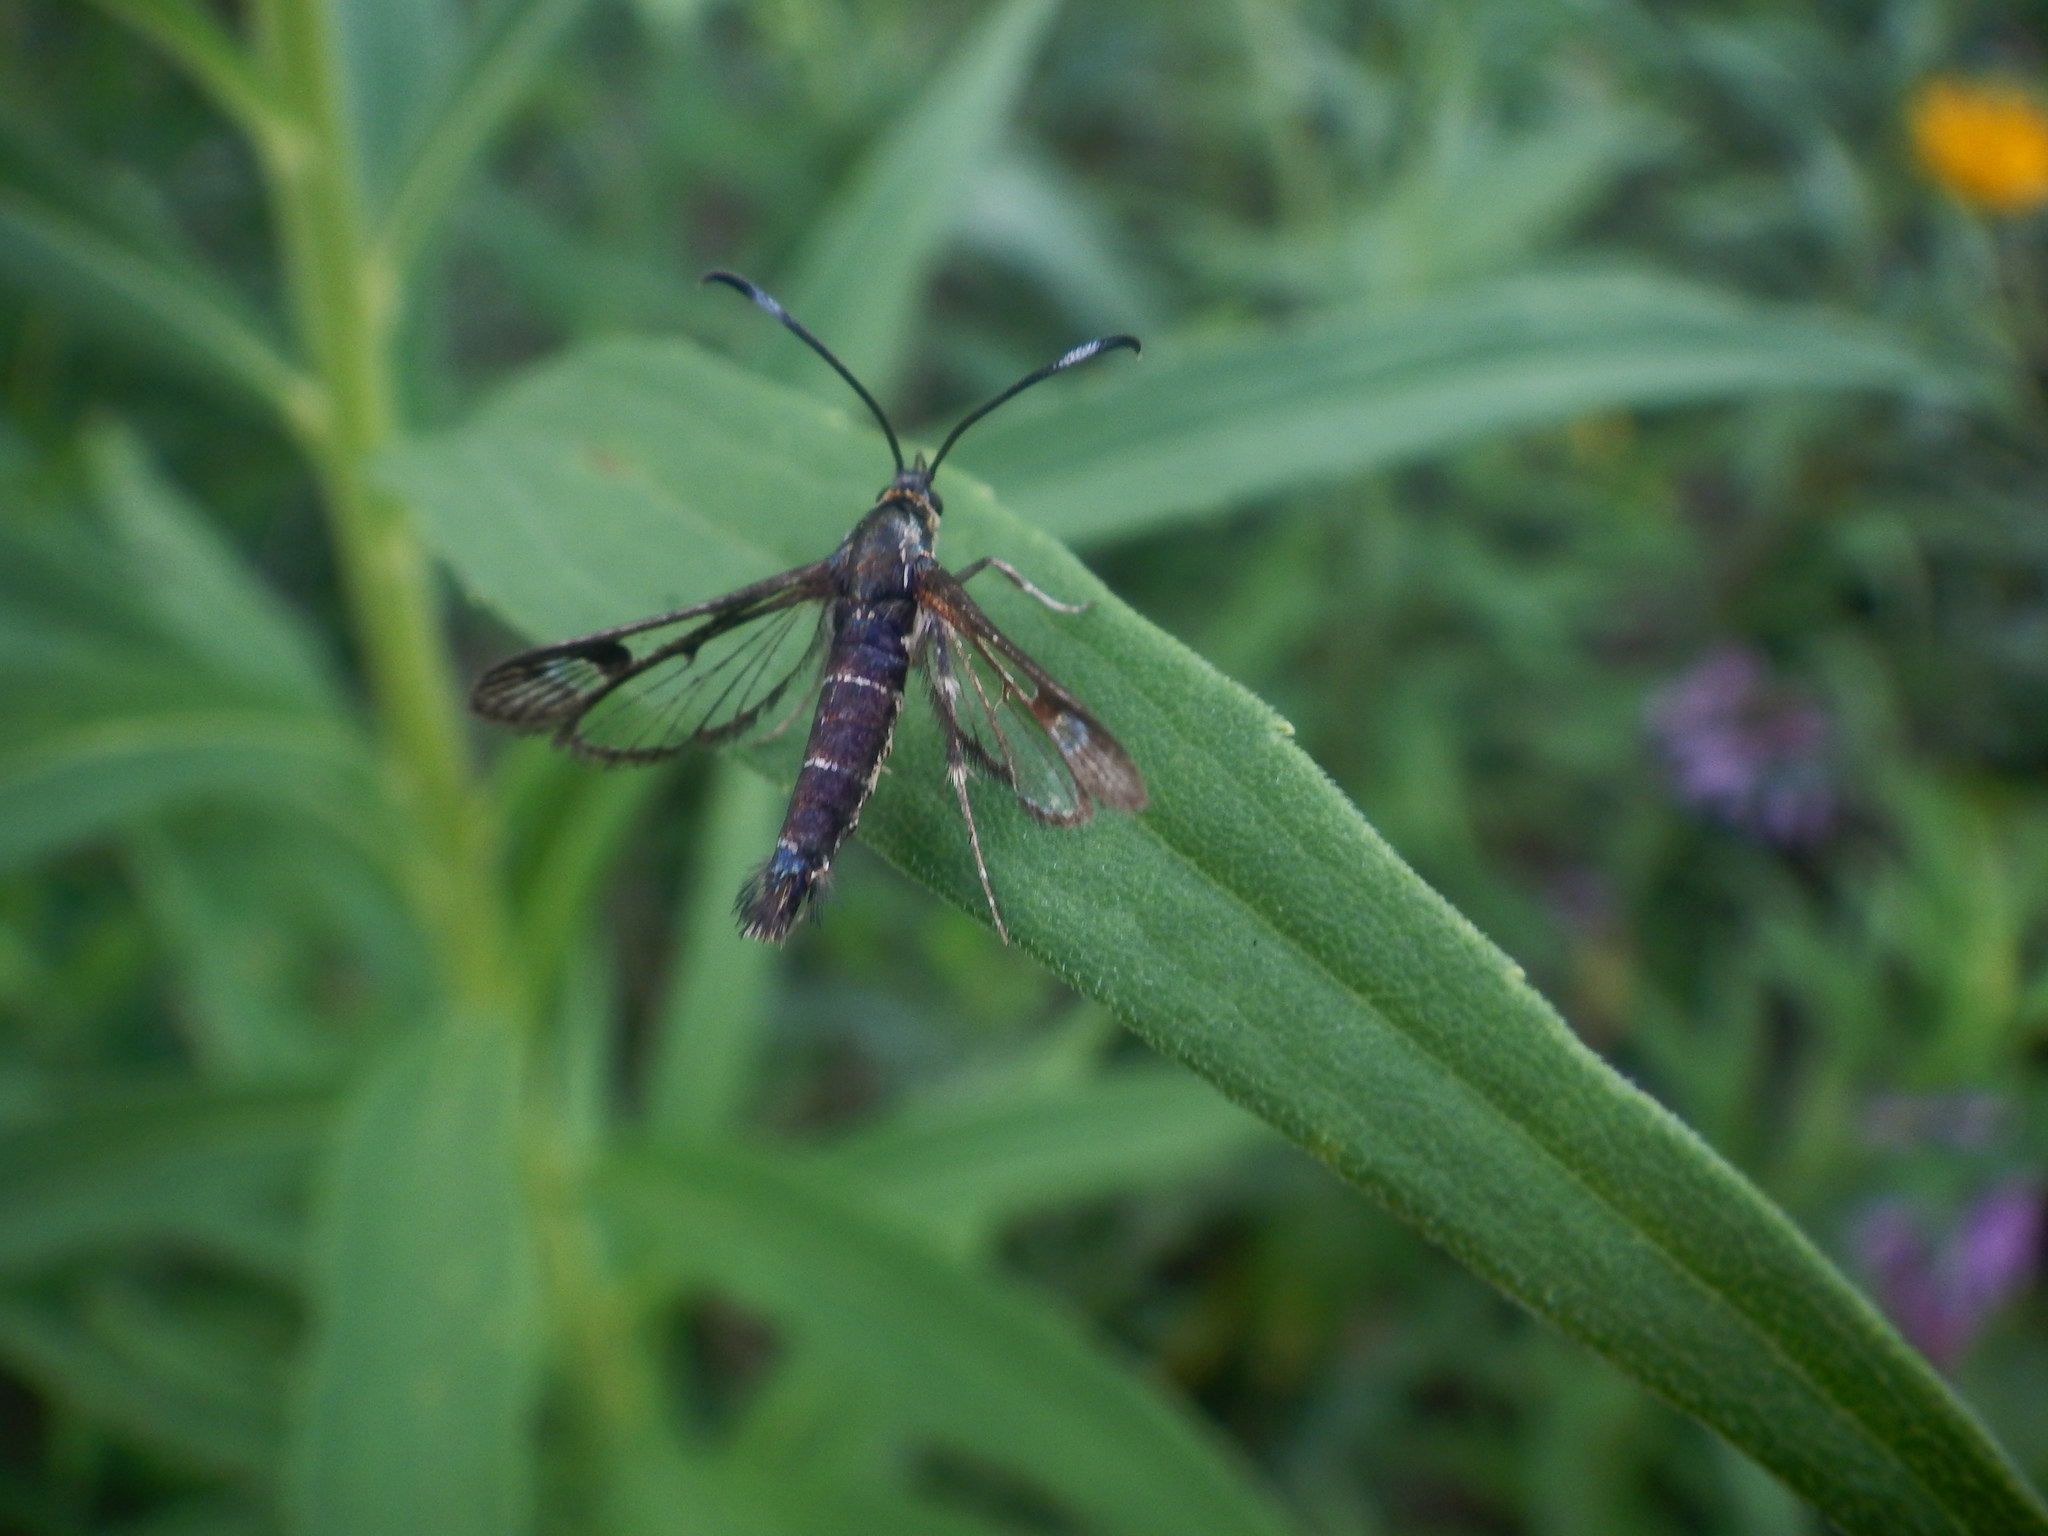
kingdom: Animalia
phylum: Arthropoda
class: Insecta
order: Lepidoptera
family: Sesiidae
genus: Carmenta
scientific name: Carmenta ithacae
